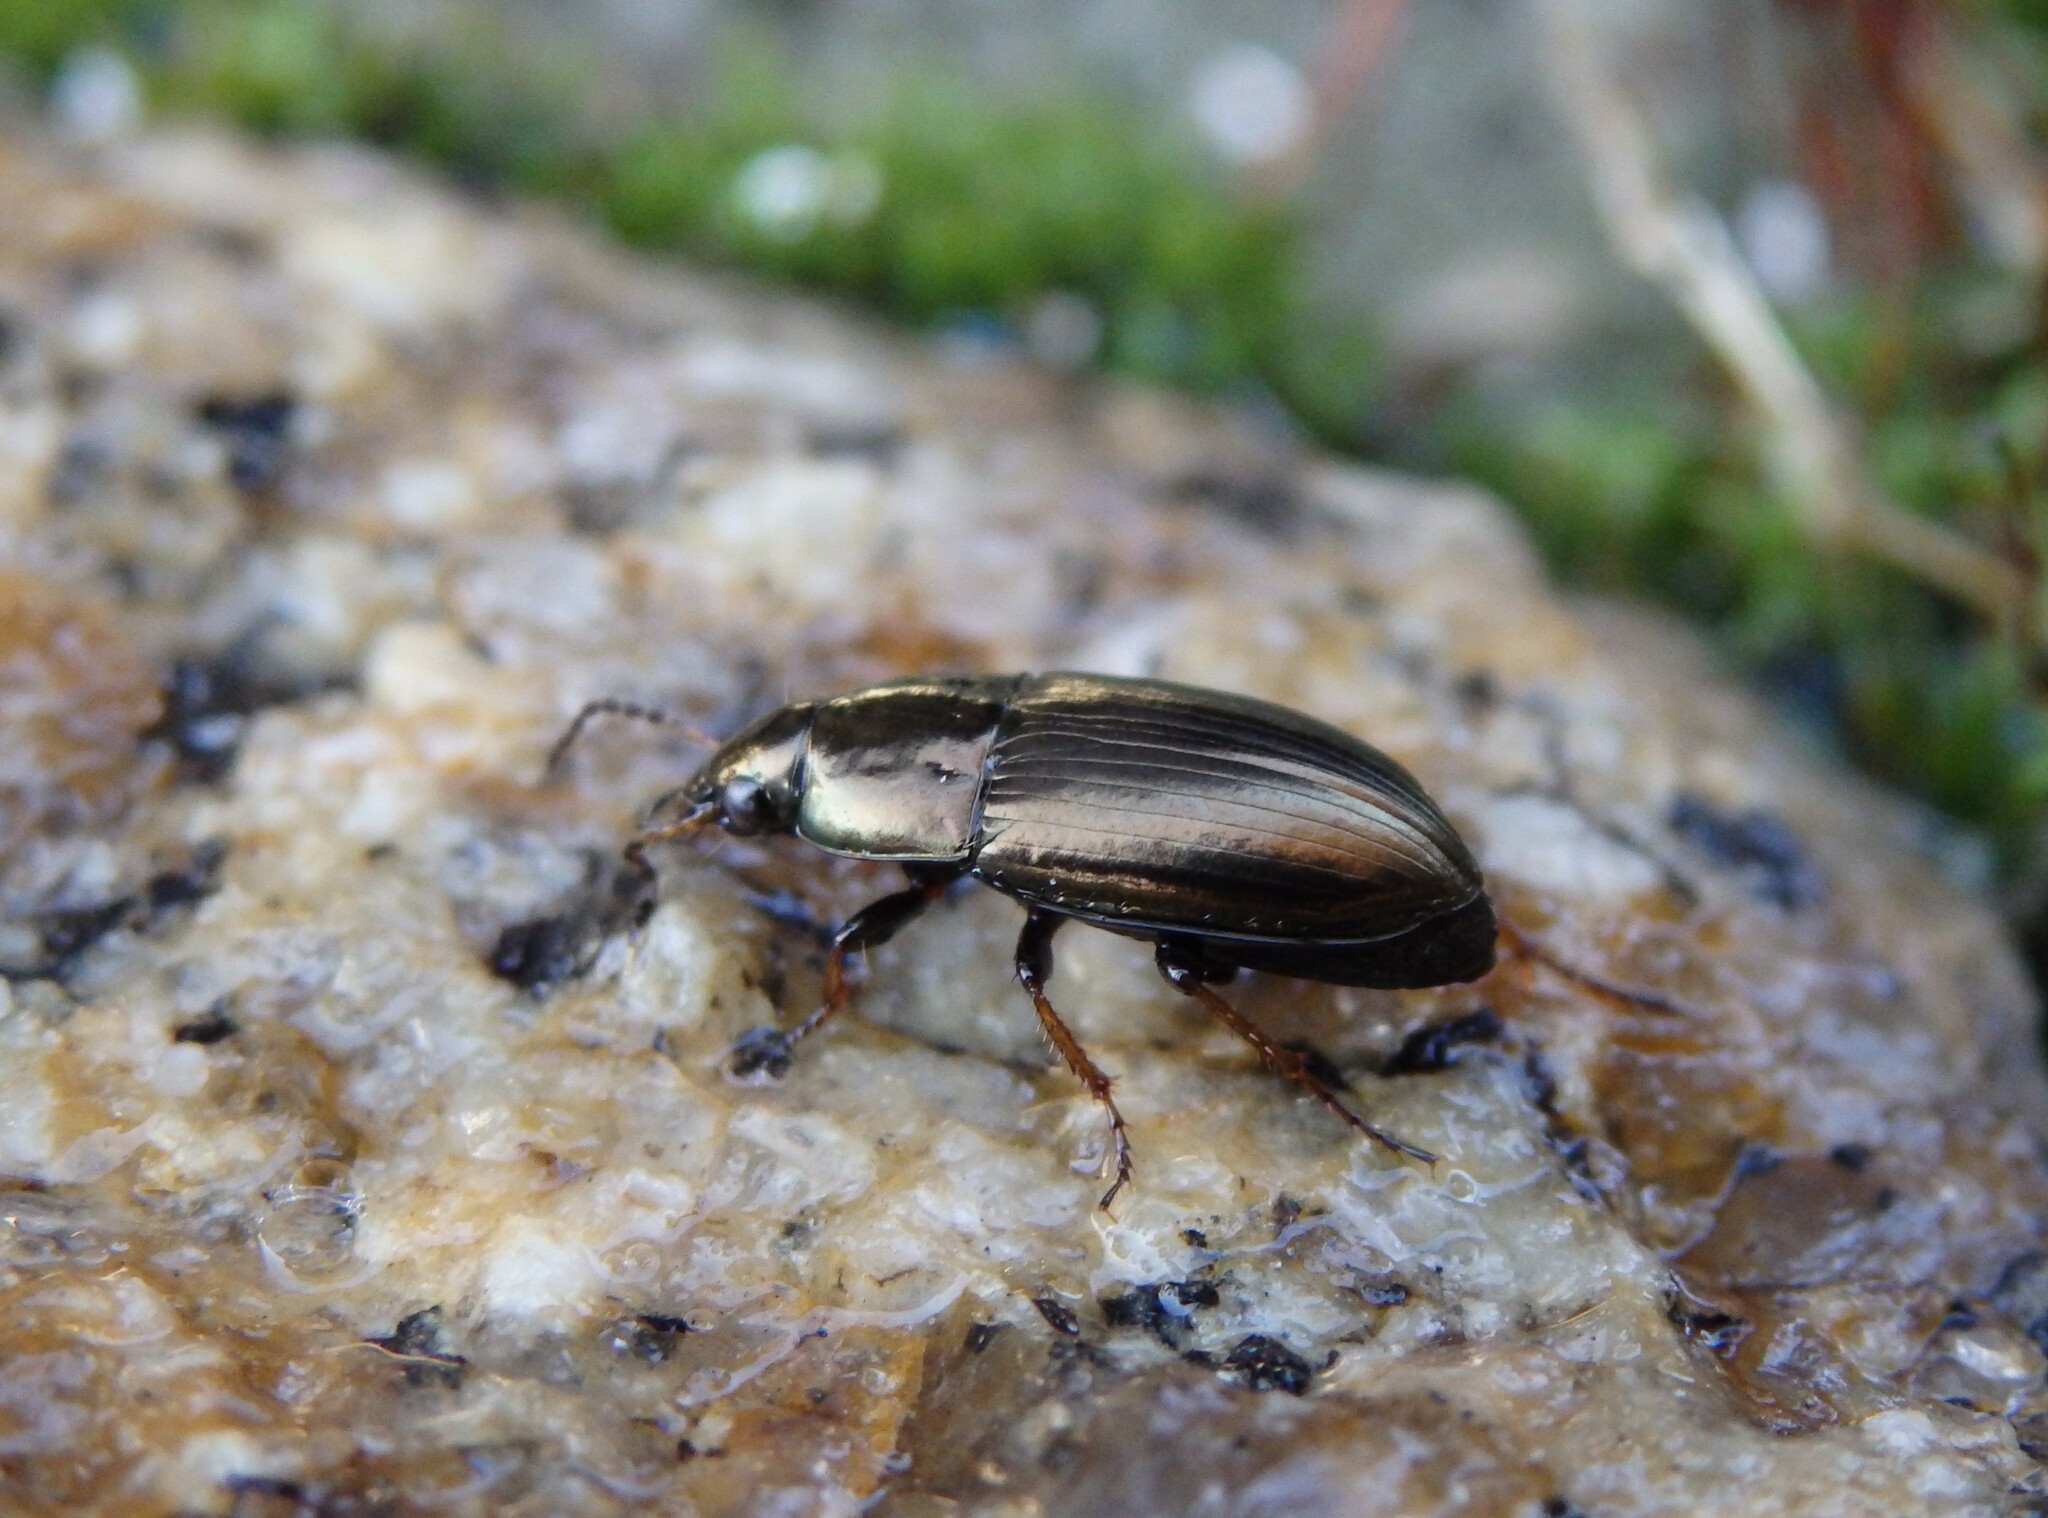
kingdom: Animalia
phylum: Arthropoda
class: Insecta
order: Coleoptera
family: Carabidae
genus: Amara
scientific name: Amara aenea
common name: Common sun beetle
